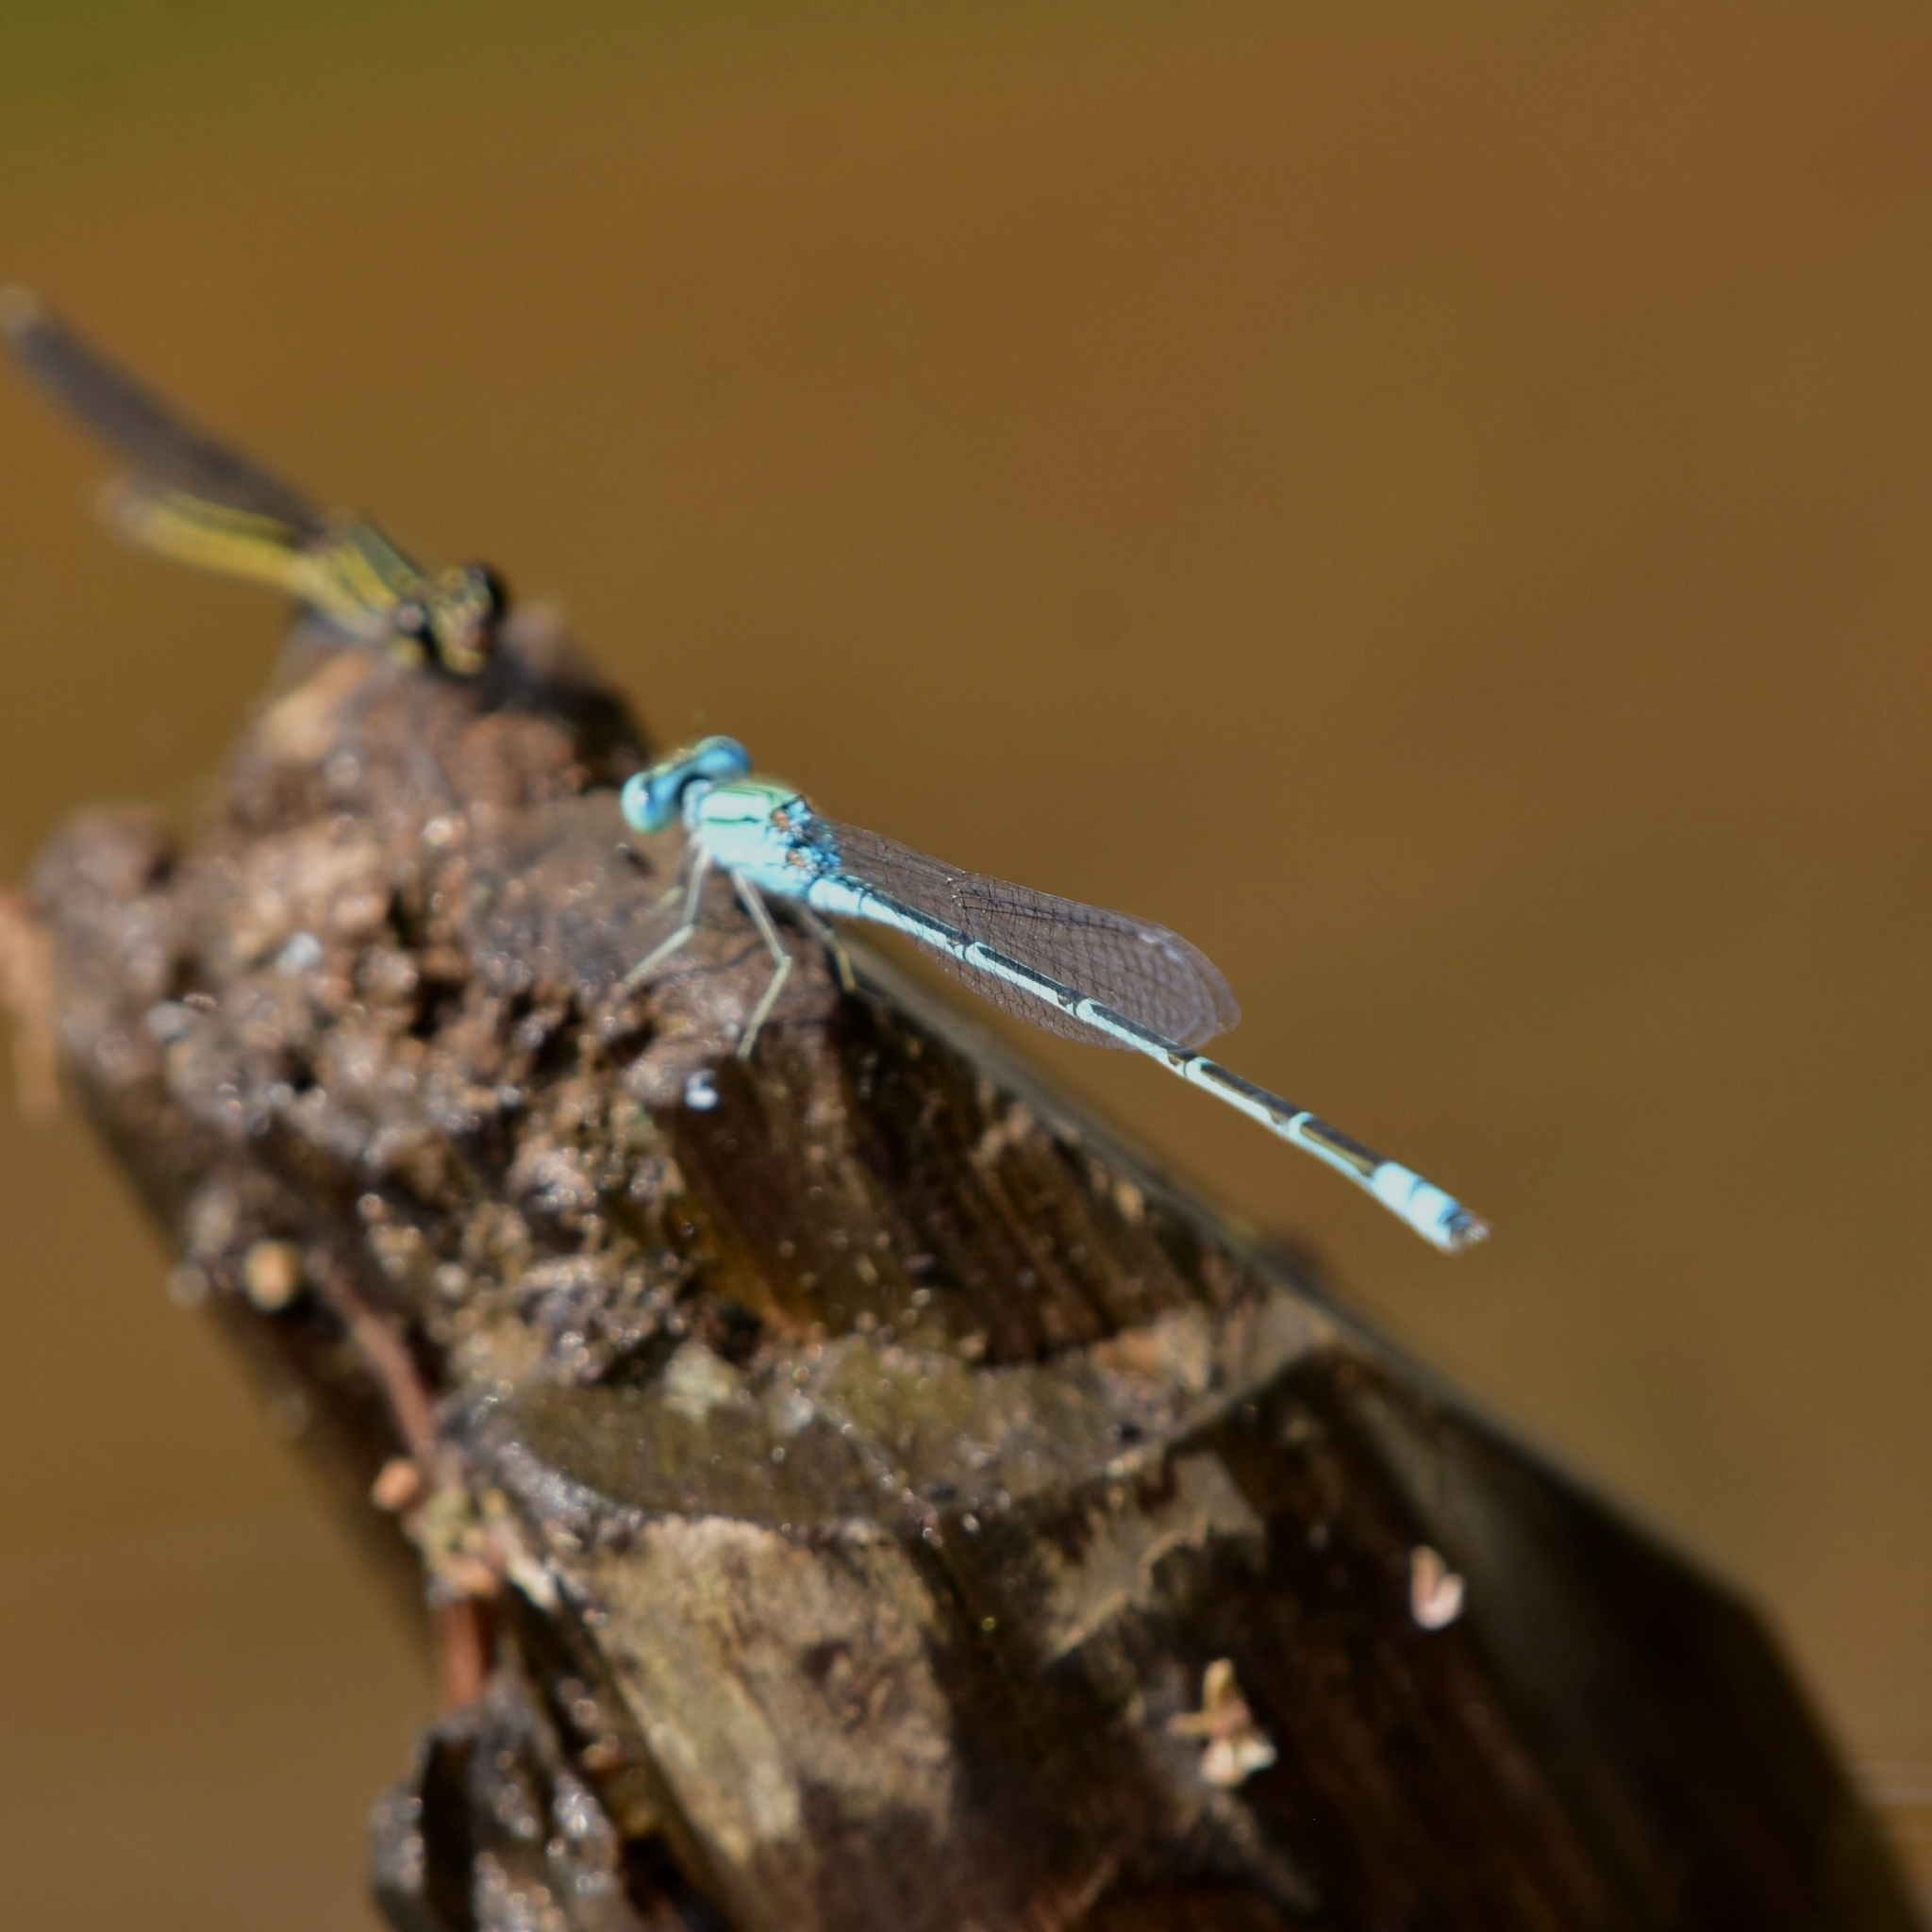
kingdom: Animalia
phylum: Arthropoda
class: Insecta
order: Odonata
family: Coenagrionidae
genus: Pseudagrion
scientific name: Pseudagrion decorum
